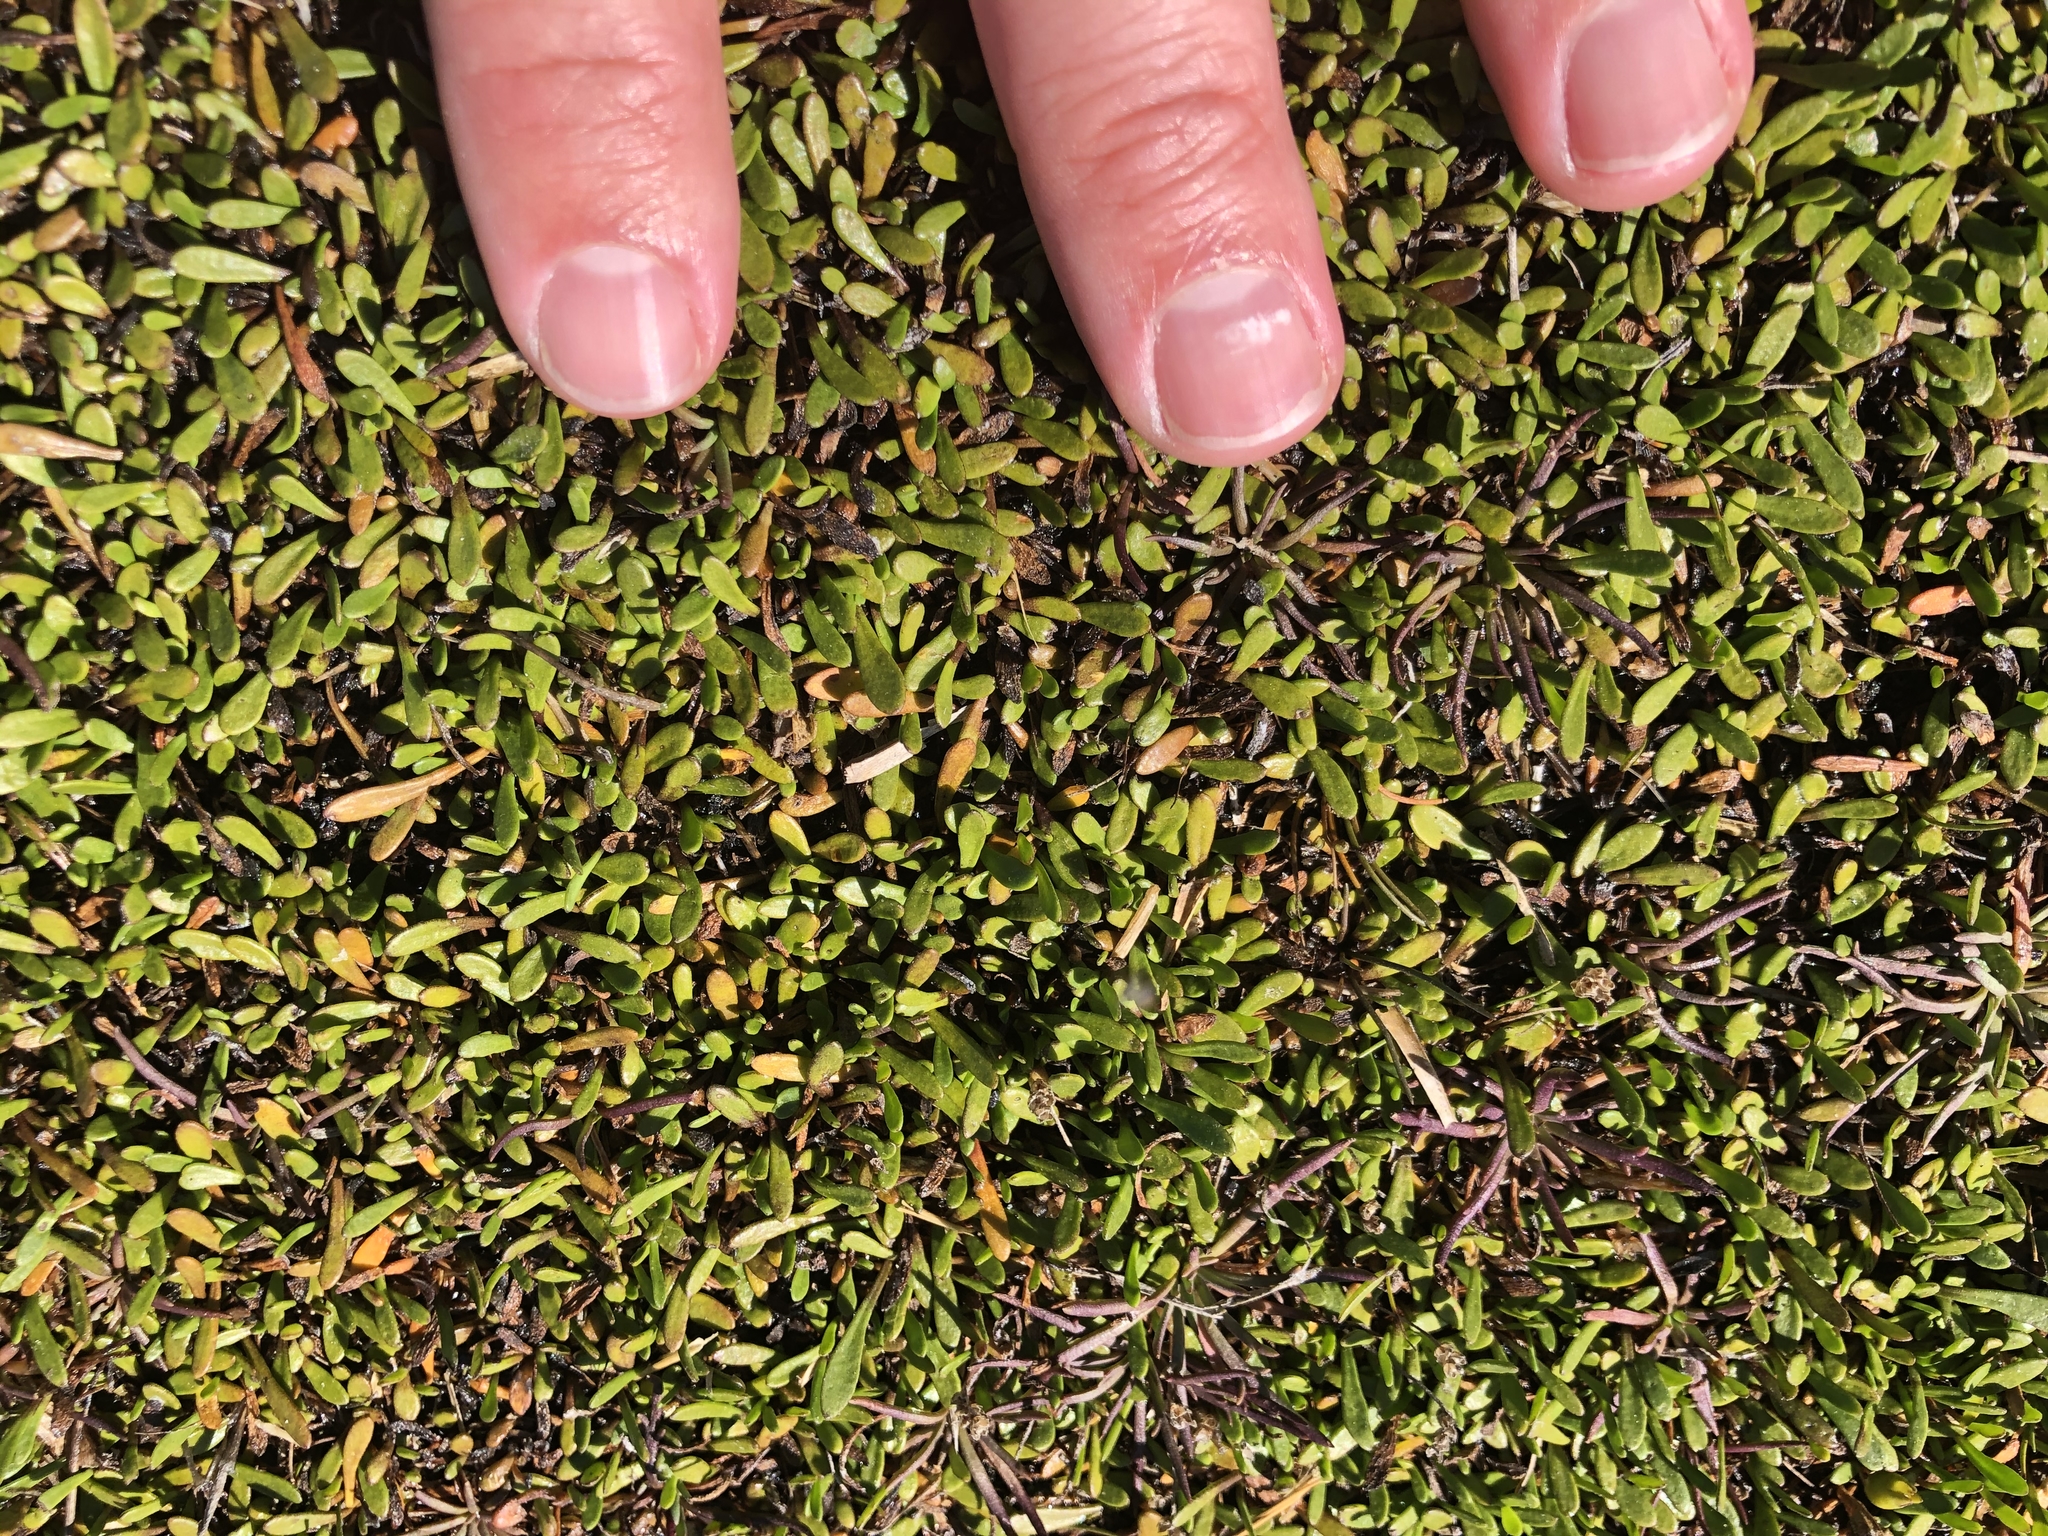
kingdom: Plantae
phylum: Tracheophyta
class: Magnoliopsida
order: Asterales
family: Goodeniaceae
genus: Goodenia
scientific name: Goodenia radicans
